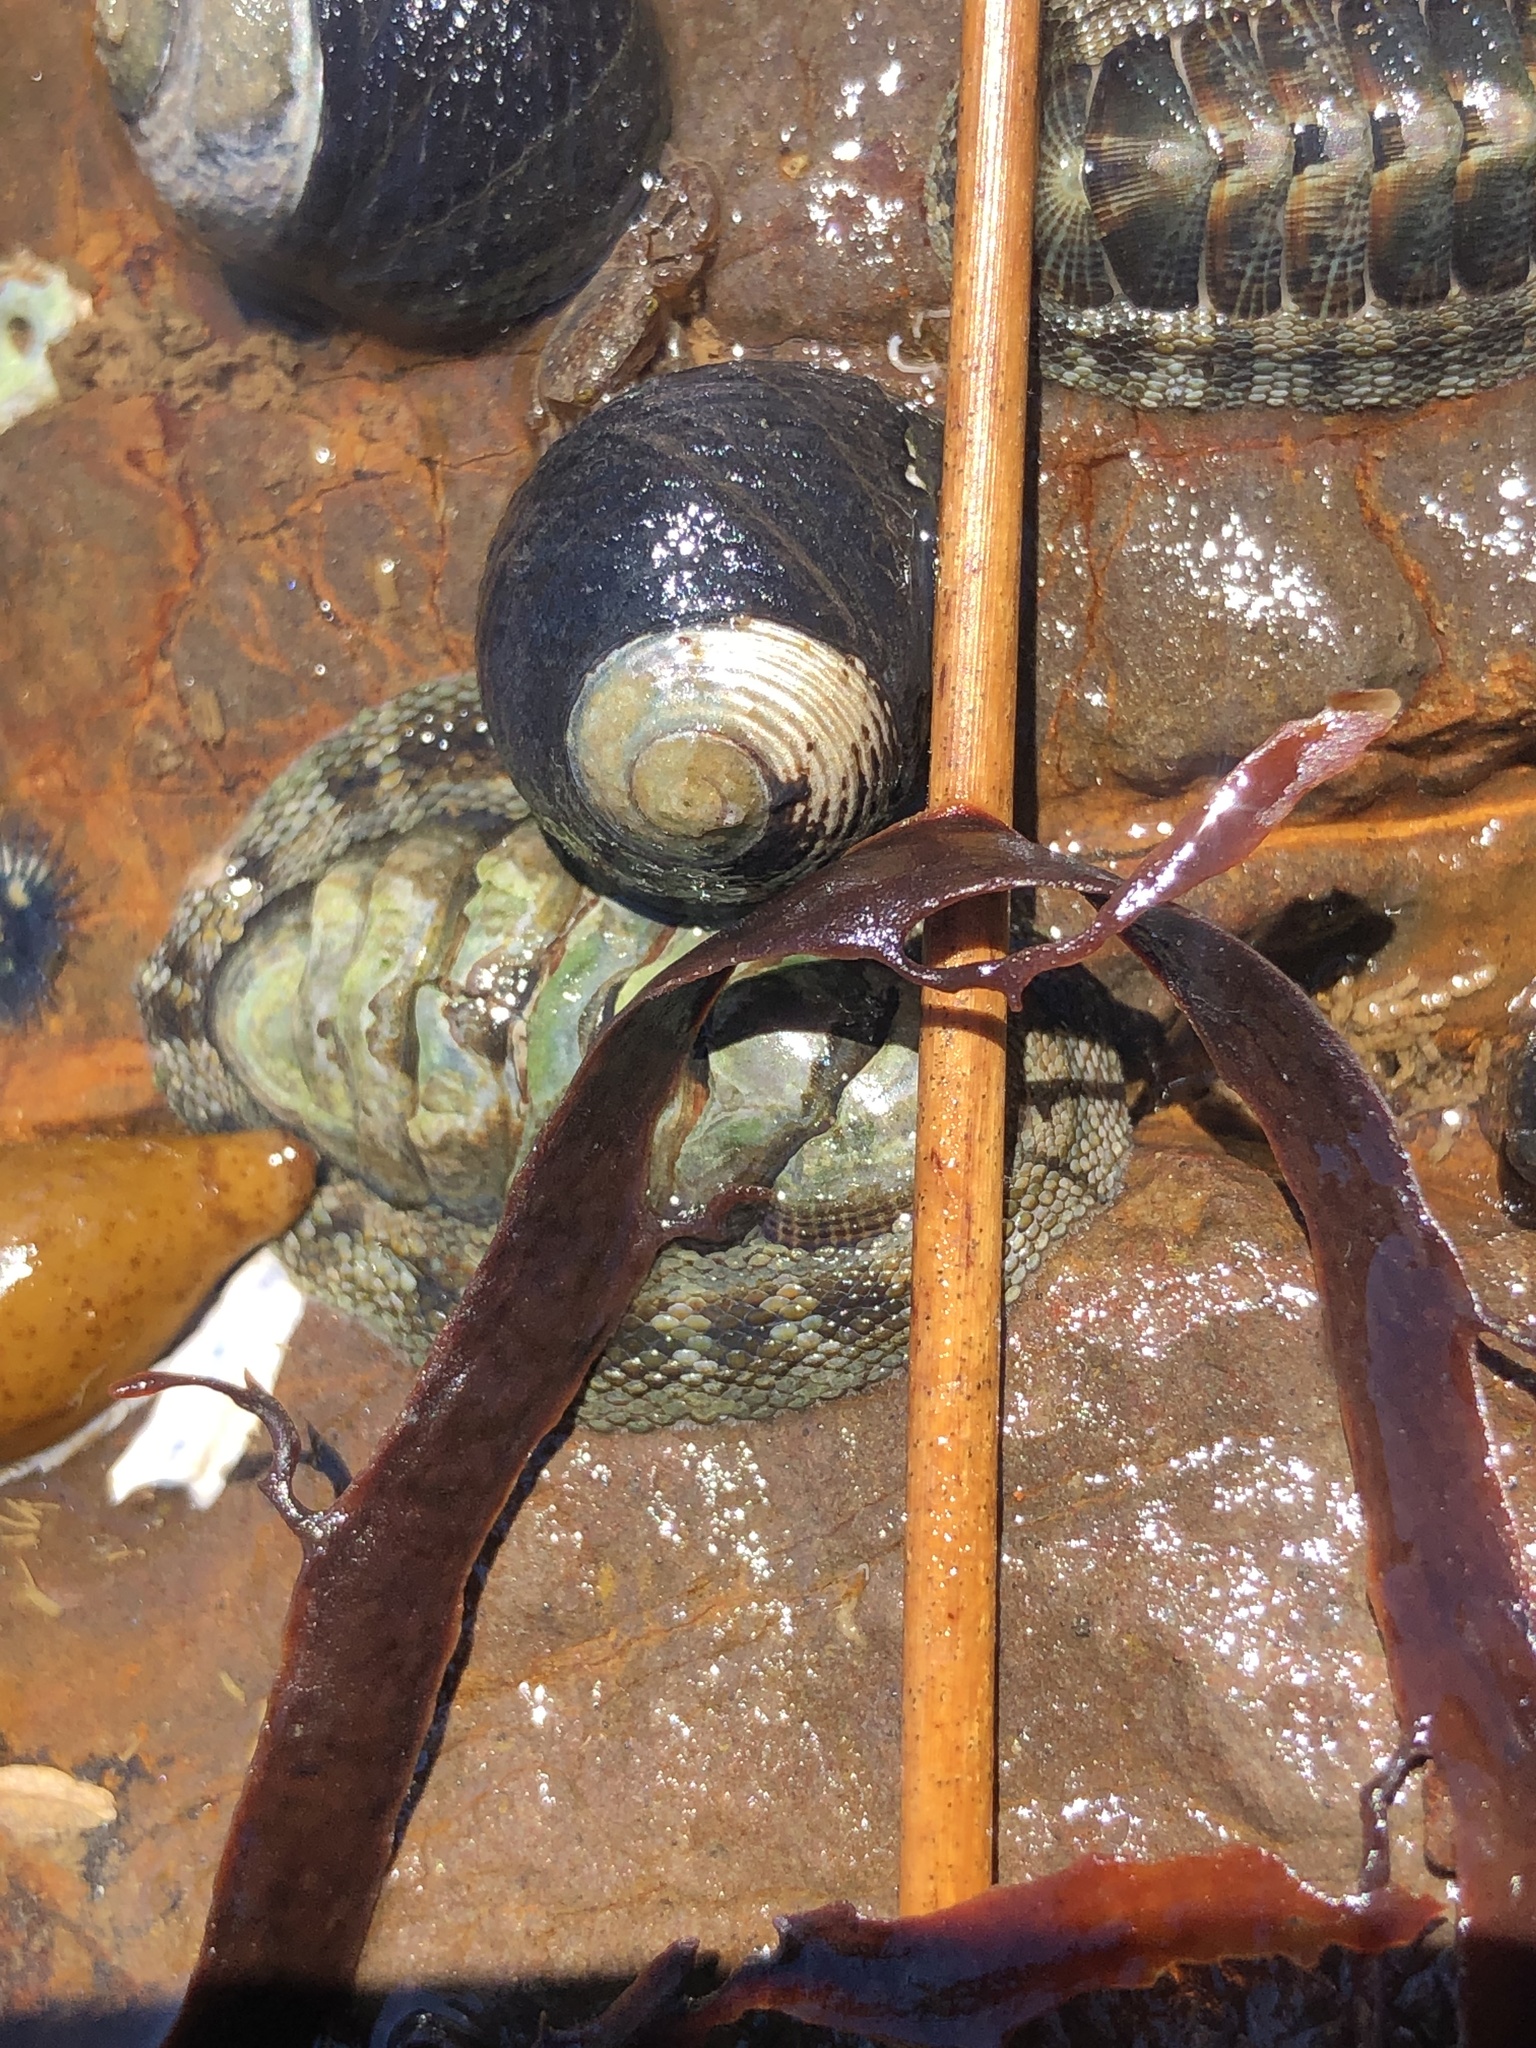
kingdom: Animalia
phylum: Mollusca
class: Polyplacophora
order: Chitonida
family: Chitonidae
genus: Sypharochiton
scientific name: Sypharochiton pelliserpentis
